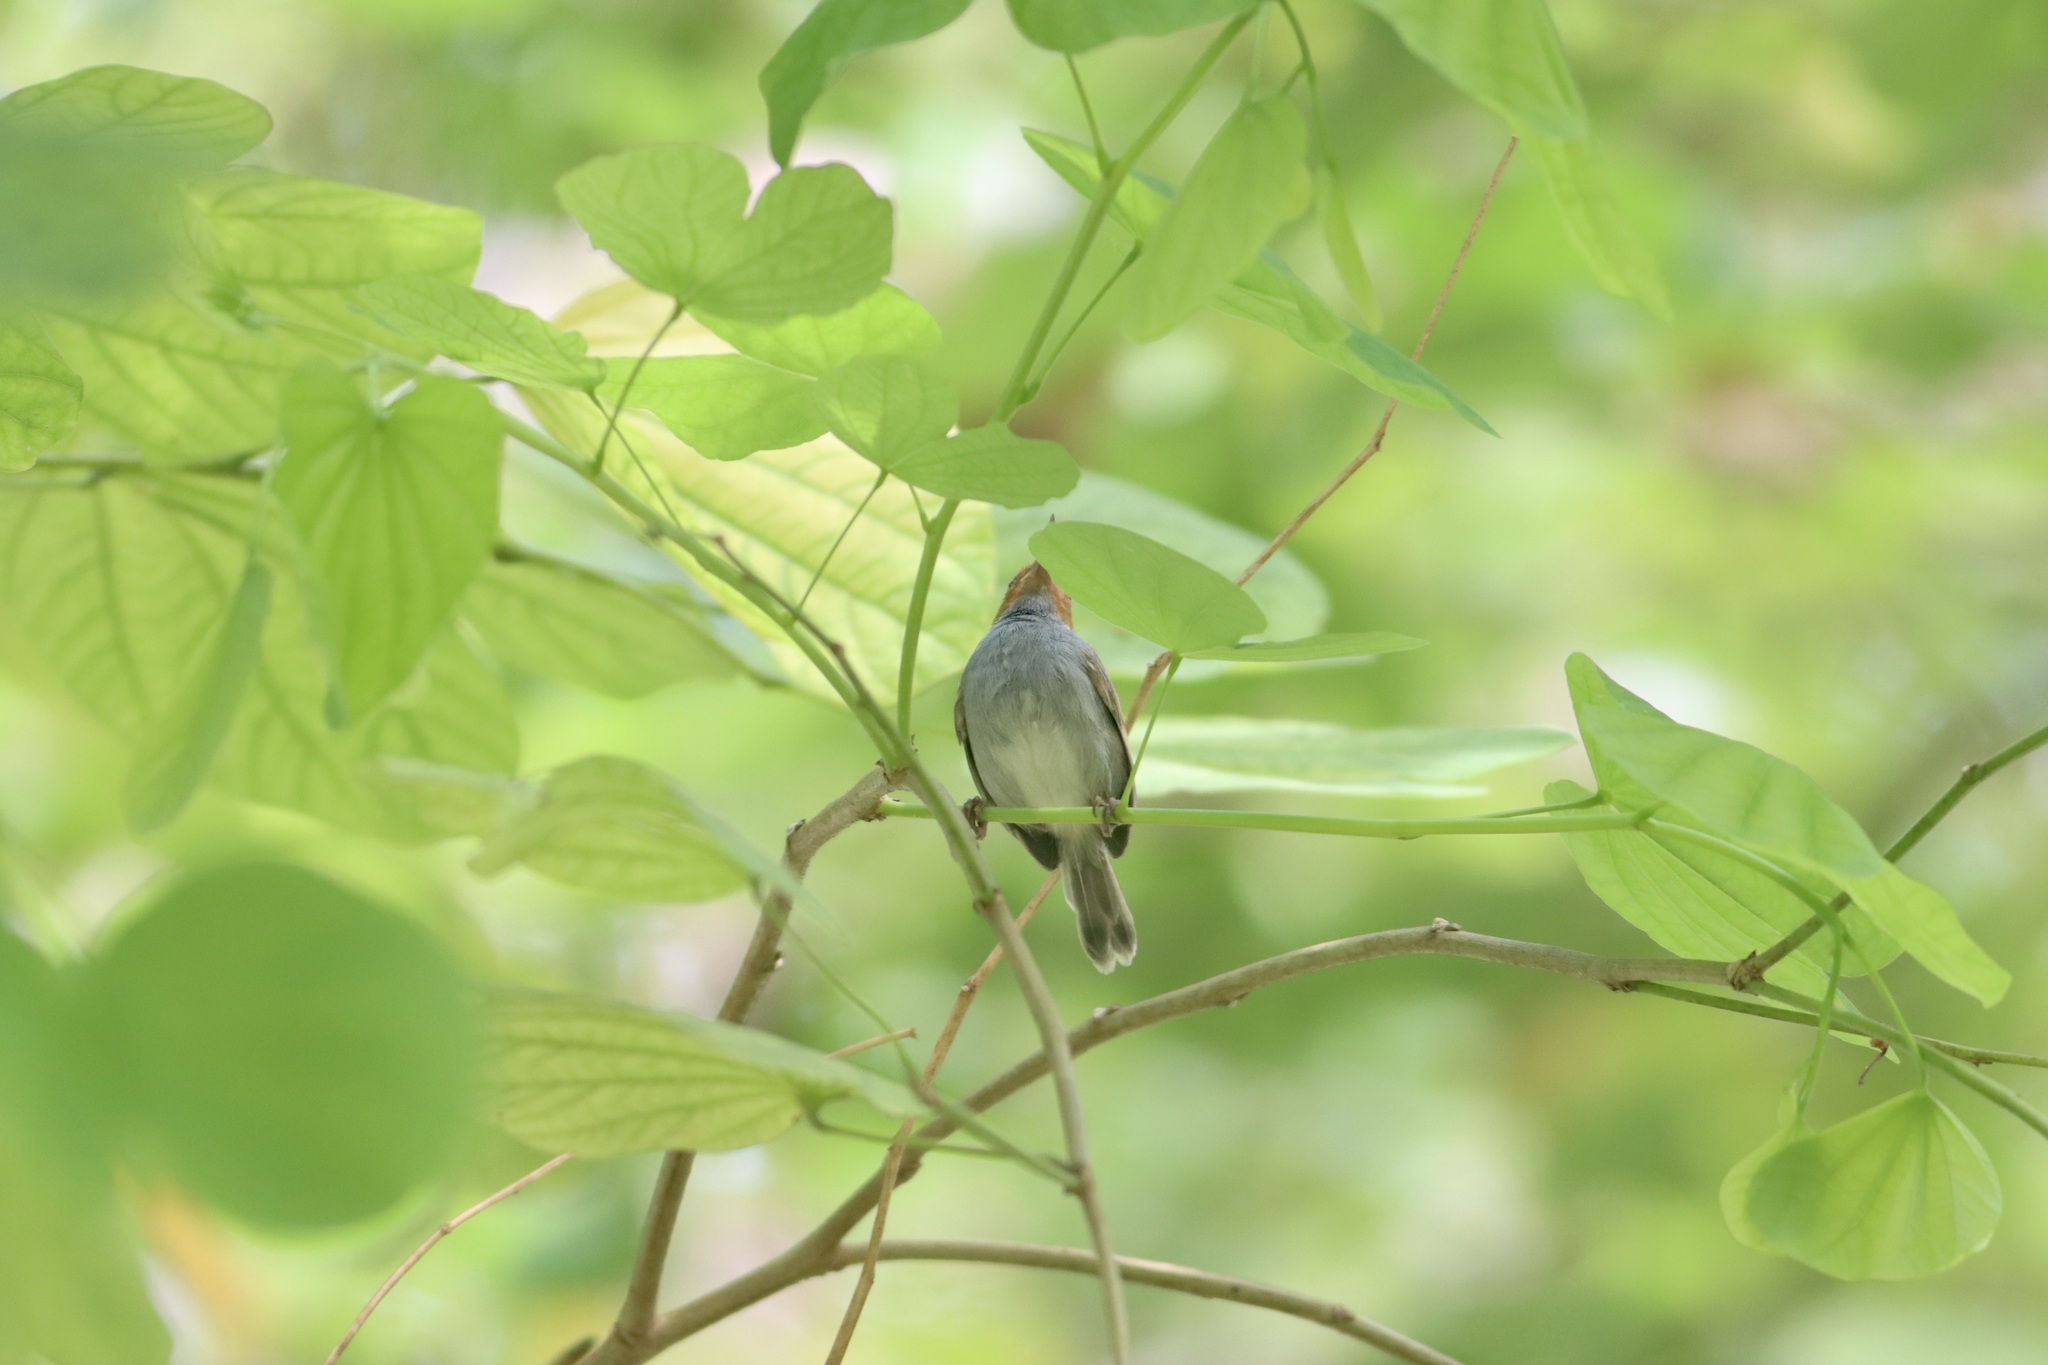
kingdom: Animalia
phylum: Chordata
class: Aves
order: Passeriformes
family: Cisticolidae
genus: Orthotomus
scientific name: Orthotomus ruficeps
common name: Ashy tailorbird
